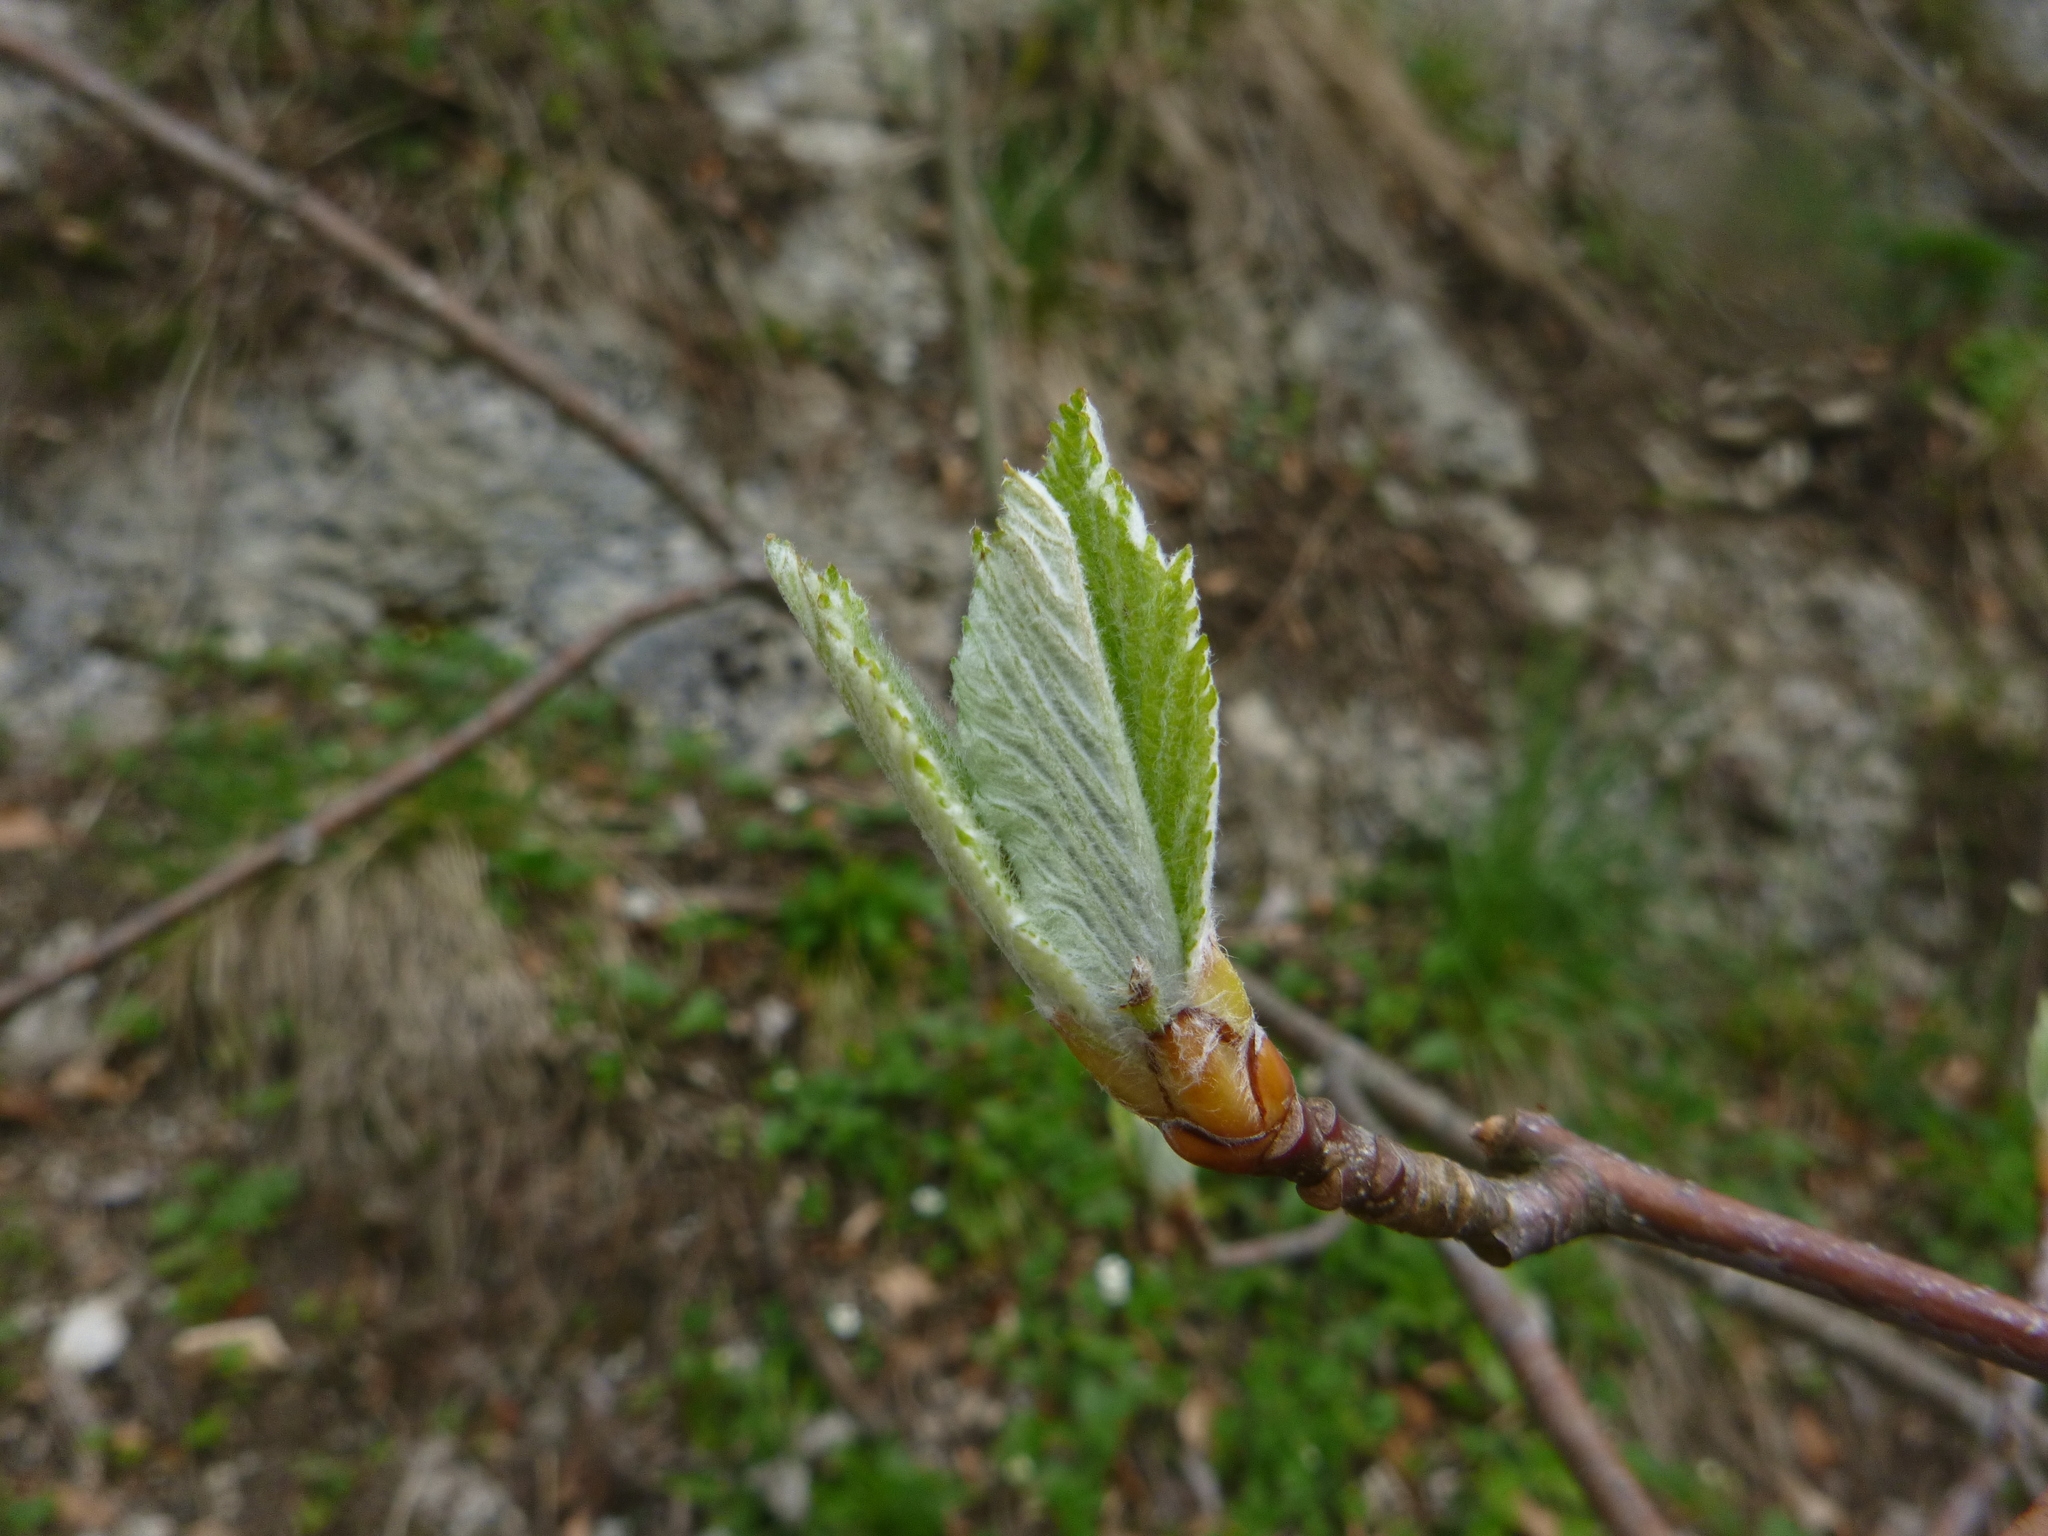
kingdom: Plantae
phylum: Tracheophyta
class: Magnoliopsida
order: Rosales
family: Rosaceae
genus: Aria
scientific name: Aria edulis
